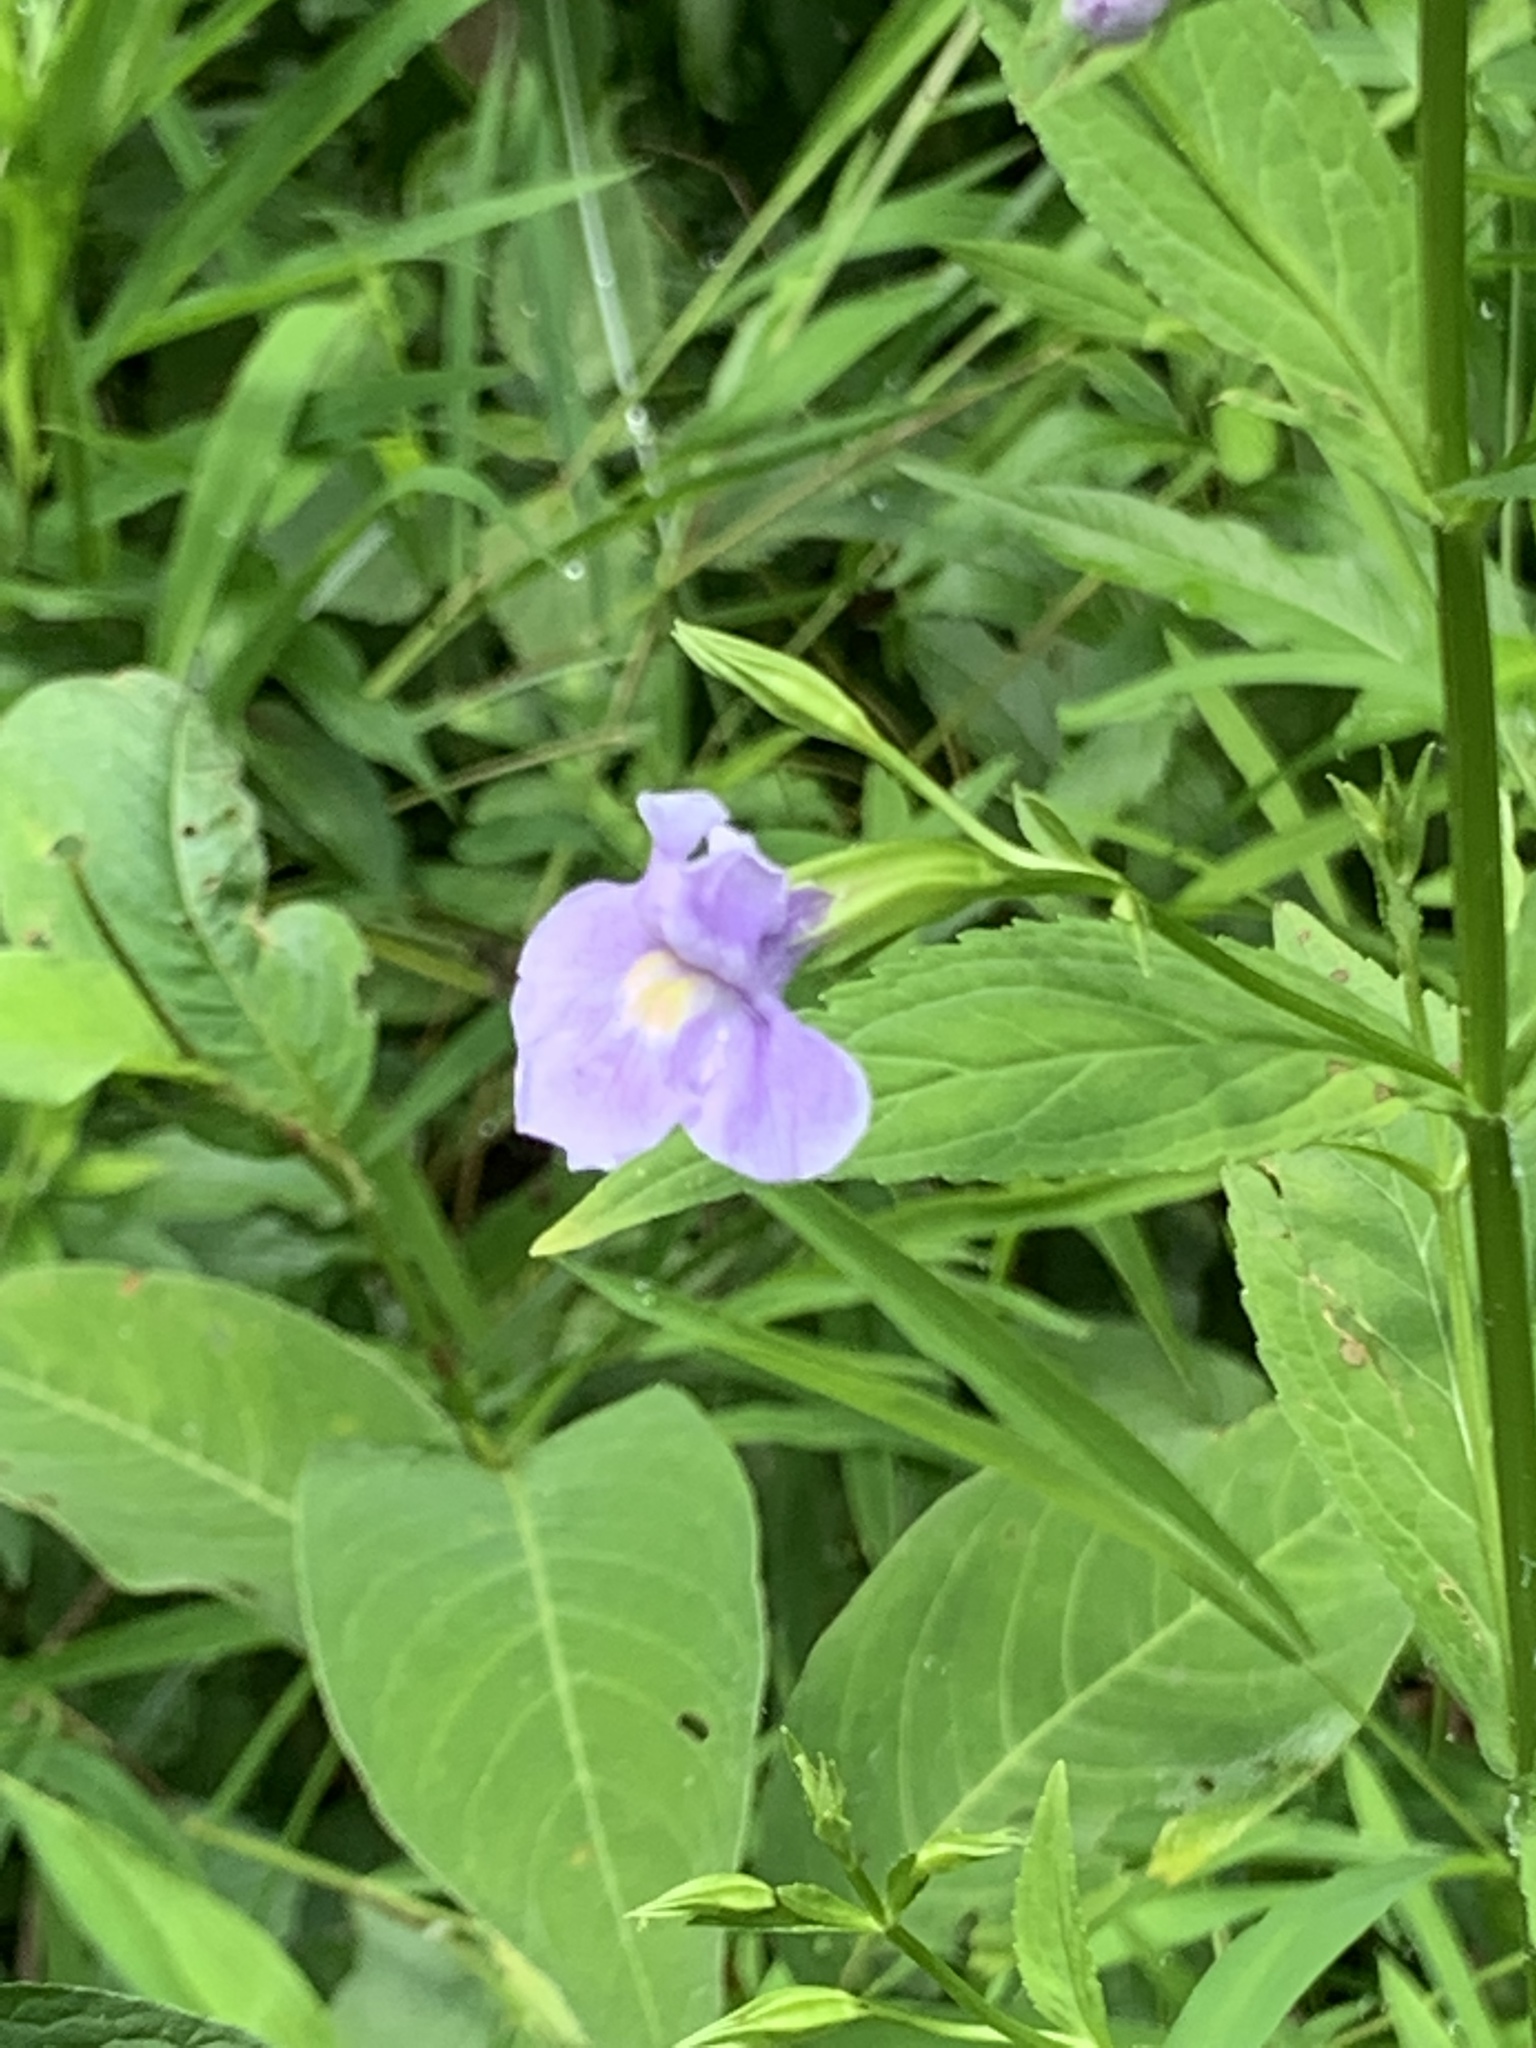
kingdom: Plantae
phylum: Tracheophyta
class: Magnoliopsida
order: Lamiales
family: Phrymaceae
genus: Mimulus
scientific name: Mimulus ringens
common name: Allegheny monkeyflower
